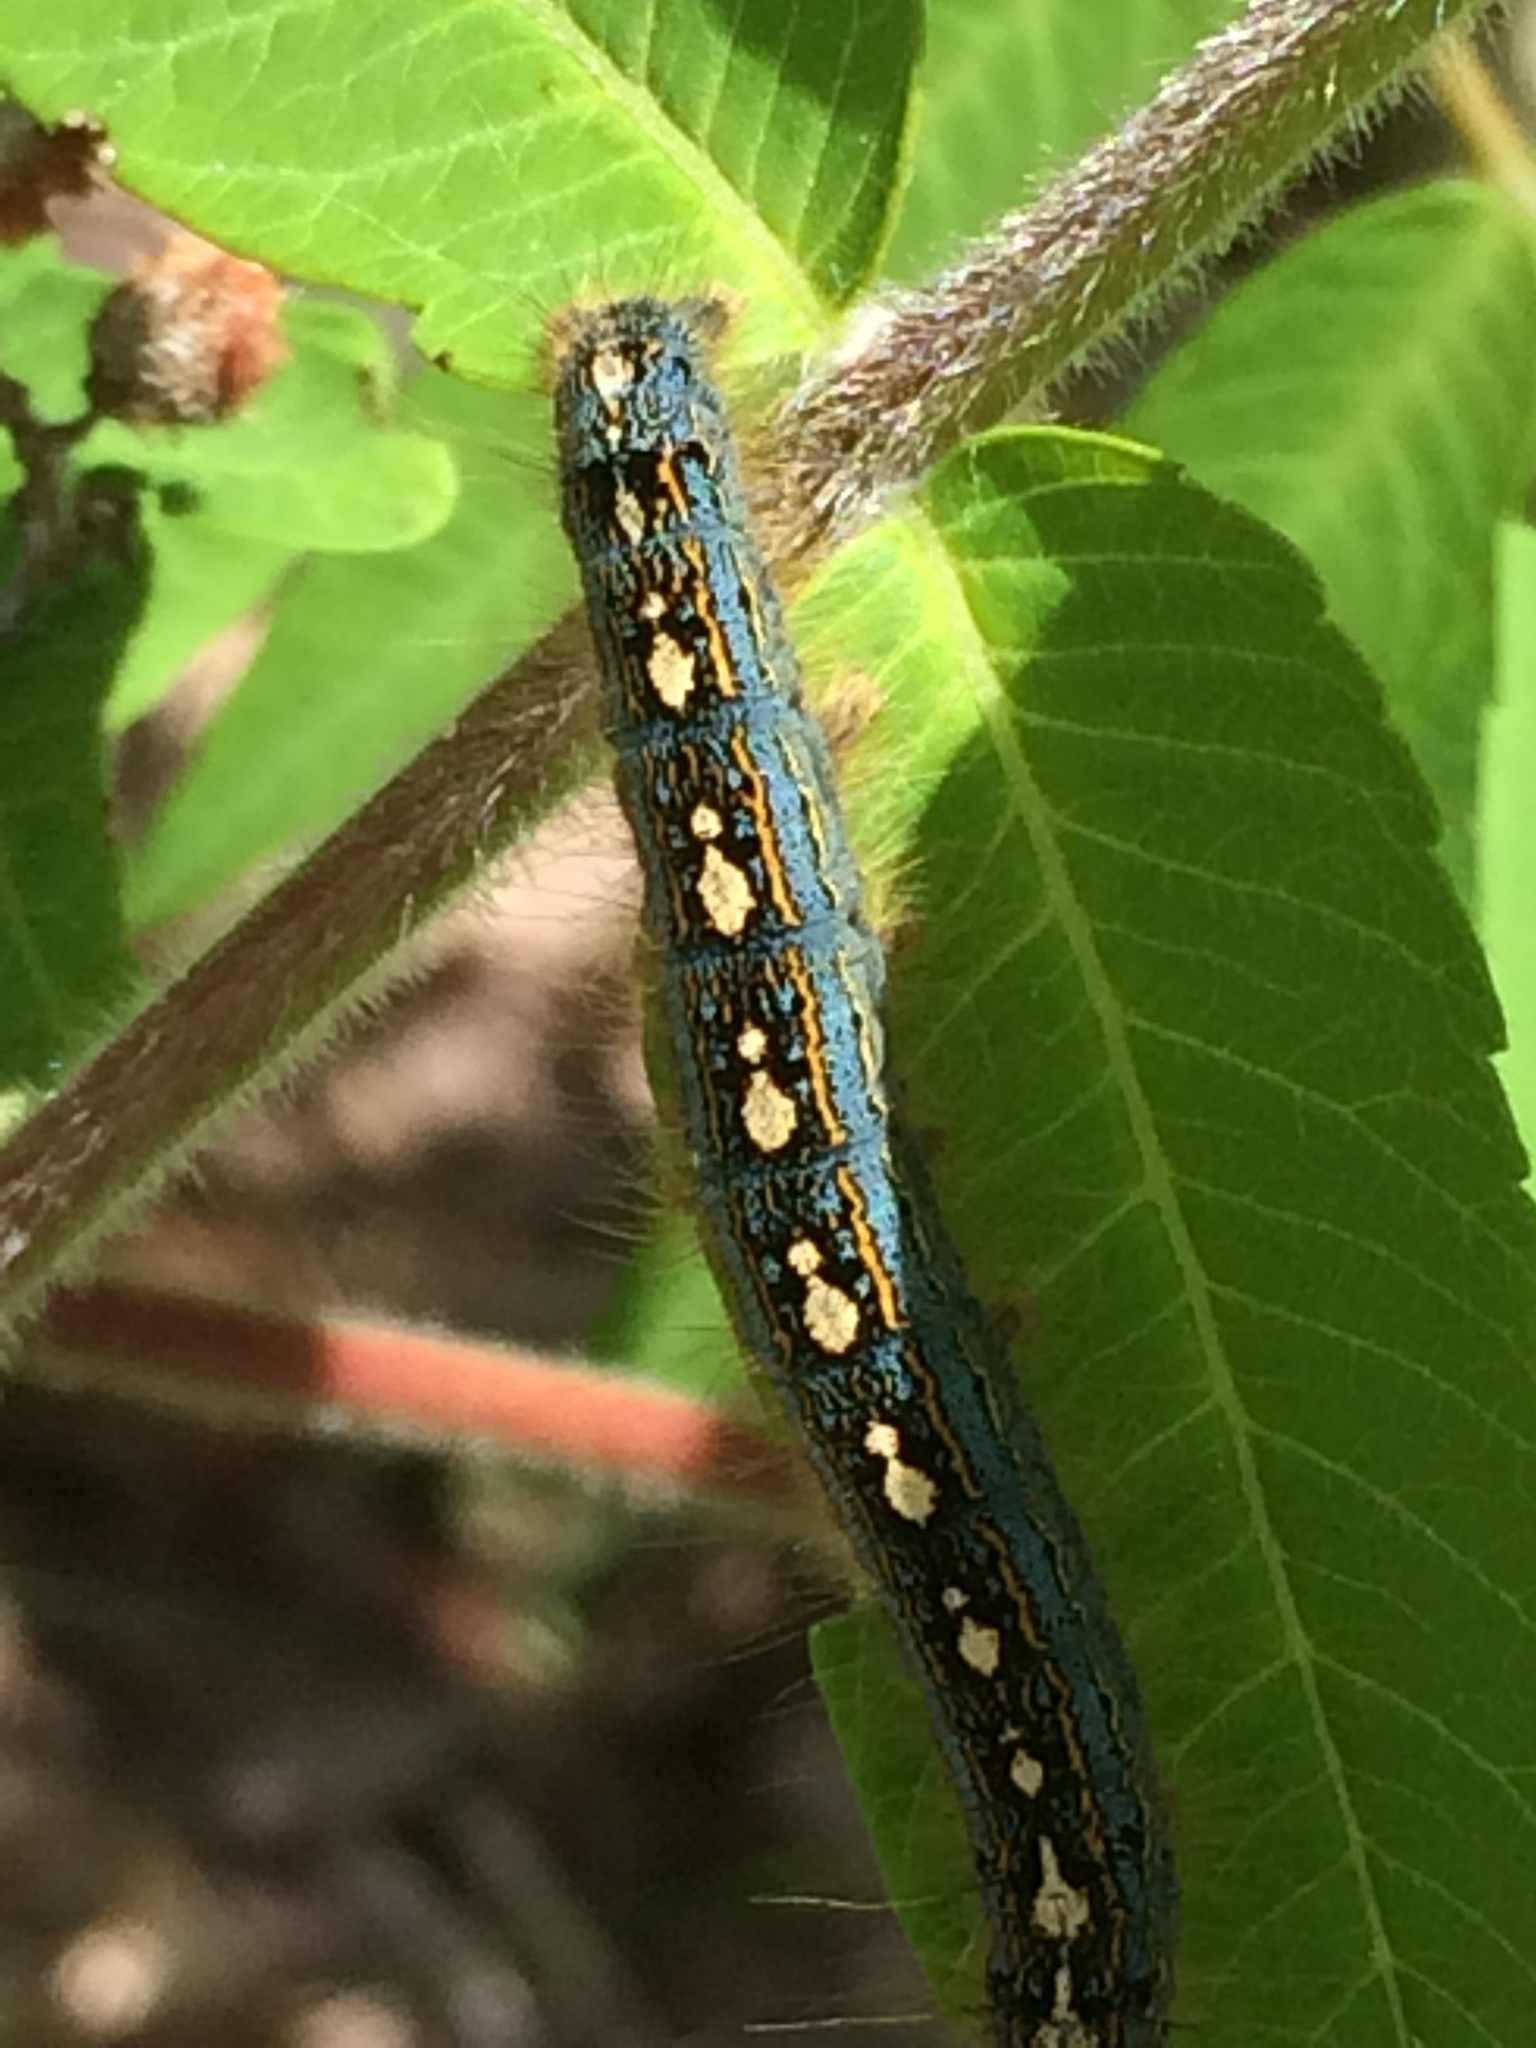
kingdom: Animalia
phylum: Arthropoda
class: Insecta
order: Lepidoptera
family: Lasiocampidae
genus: Malacosoma
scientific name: Malacosoma disstria
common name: Forest tent caterpillar
